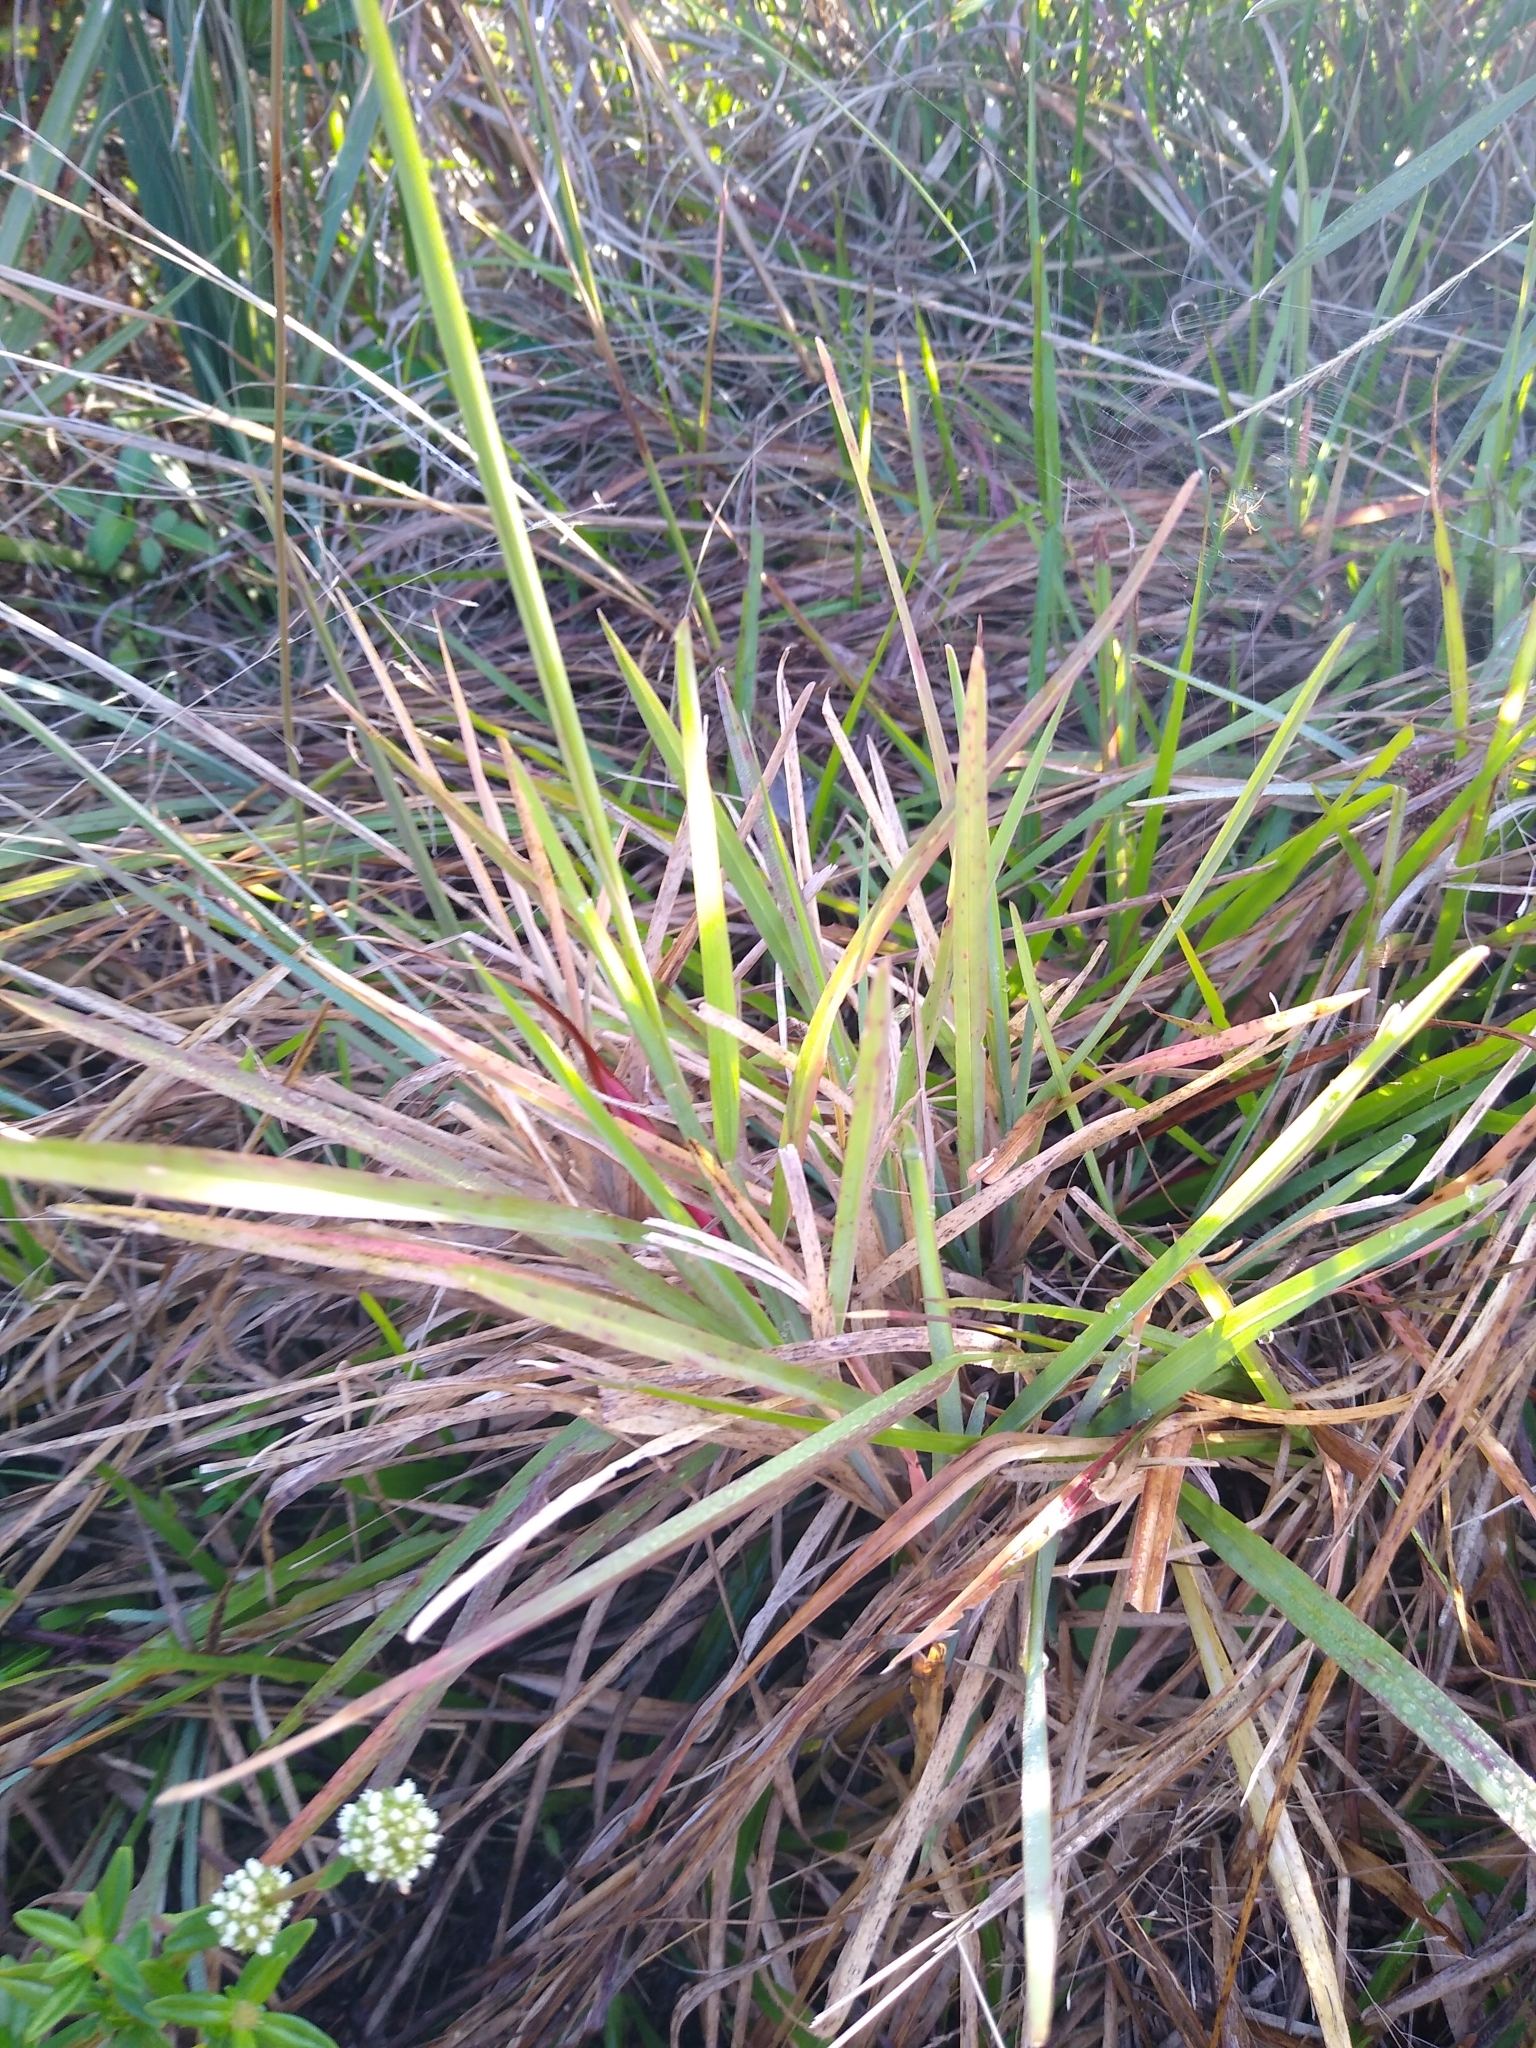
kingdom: Plantae
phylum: Tracheophyta
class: Liliopsida
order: Poales
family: Poaceae
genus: Eustachys
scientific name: Eustachys petraea
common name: Pinewoods fingergrass
